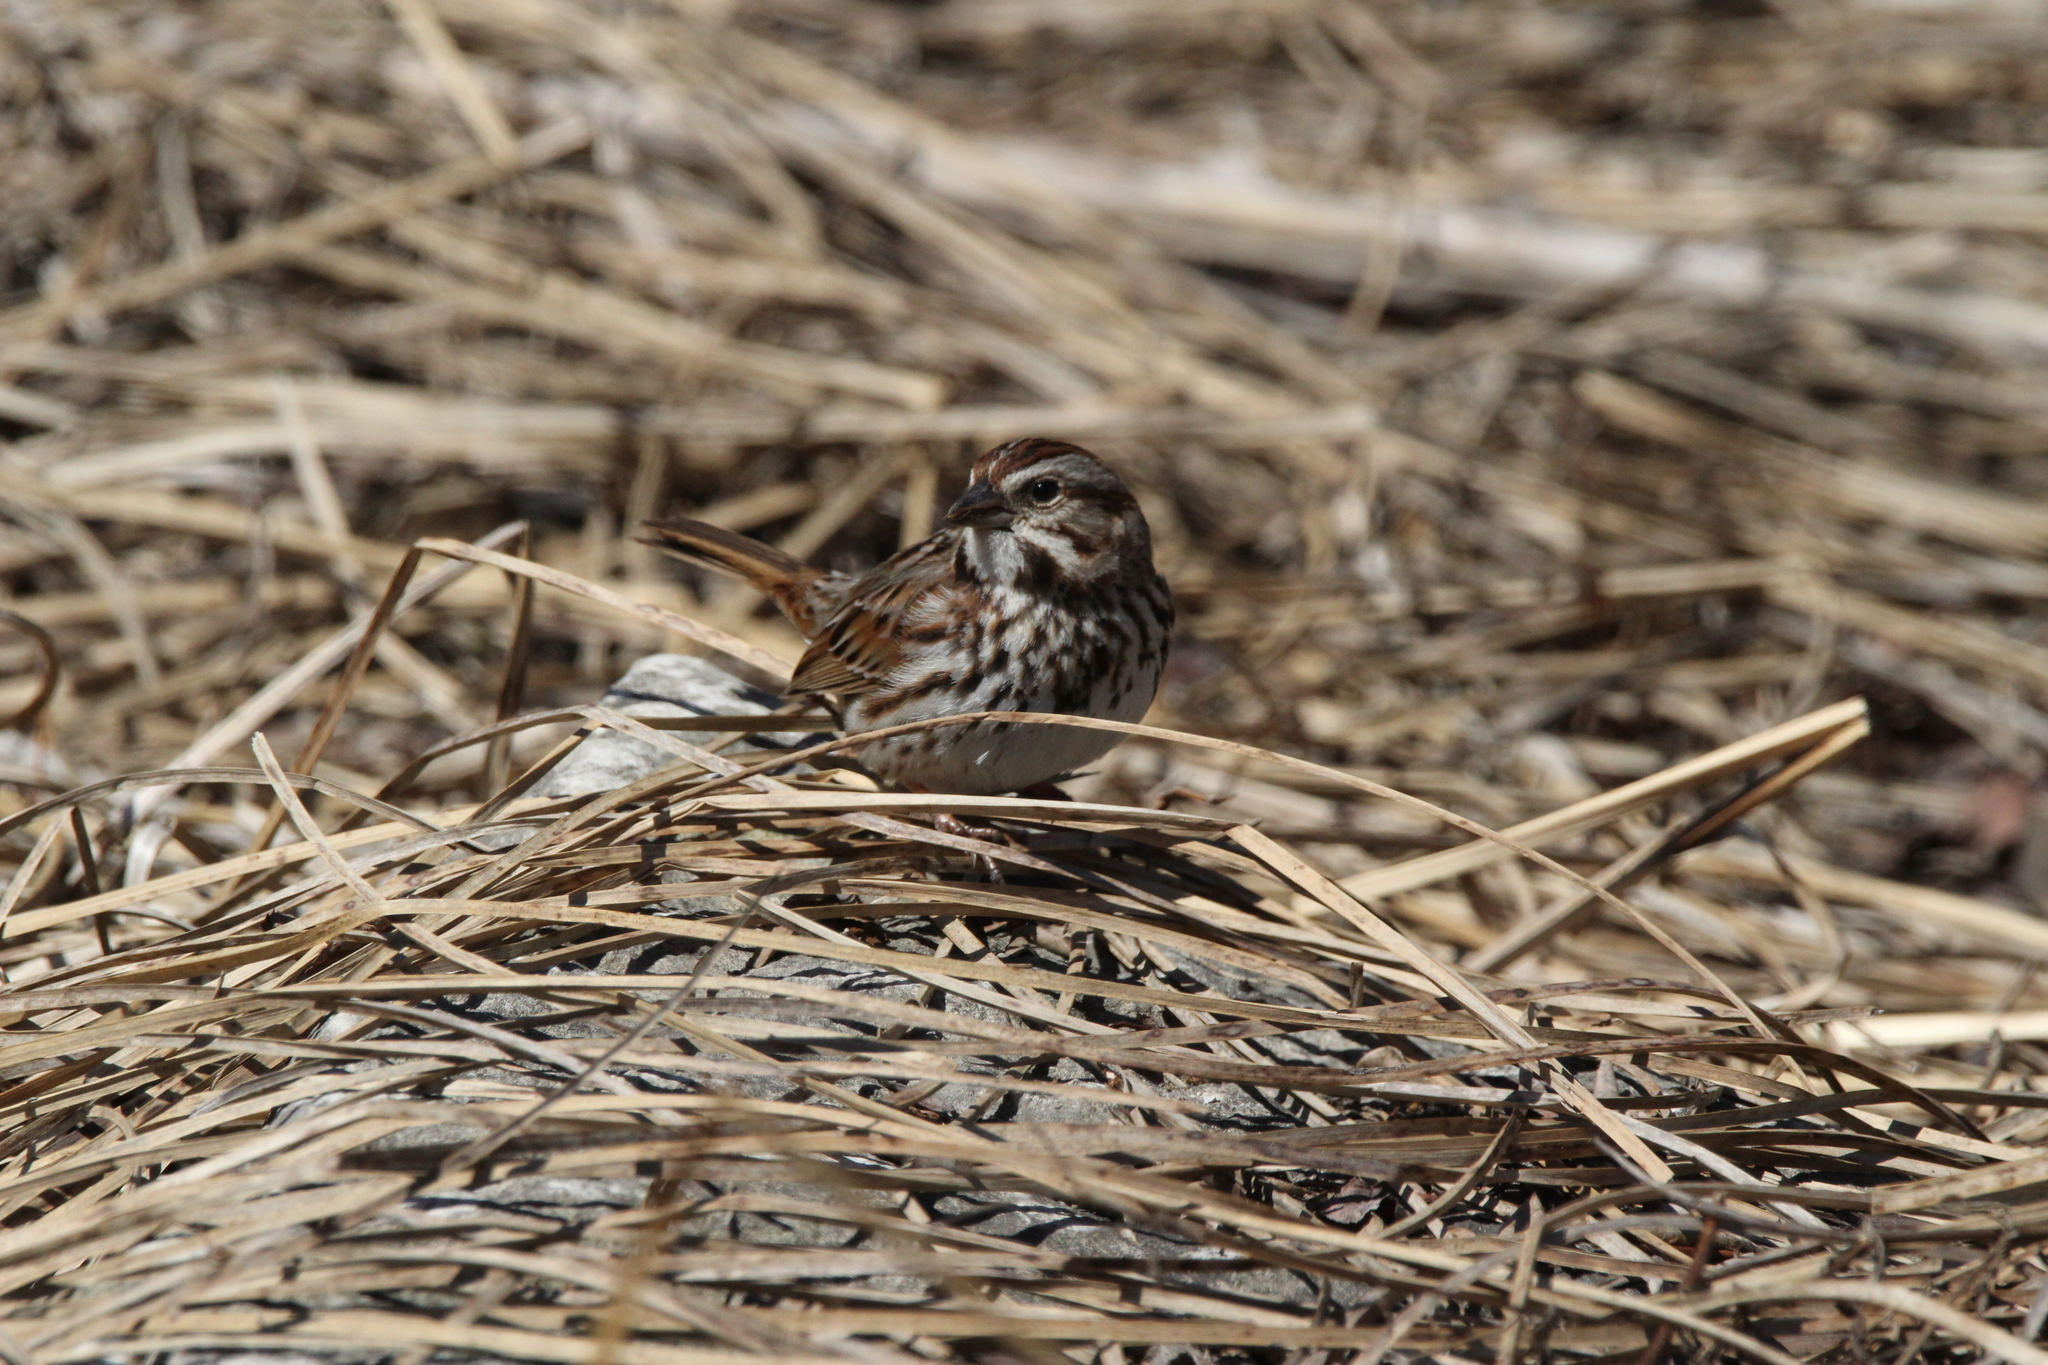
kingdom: Animalia
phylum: Chordata
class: Aves
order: Passeriformes
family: Passerellidae
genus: Melospiza
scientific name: Melospiza melodia
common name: Song sparrow
